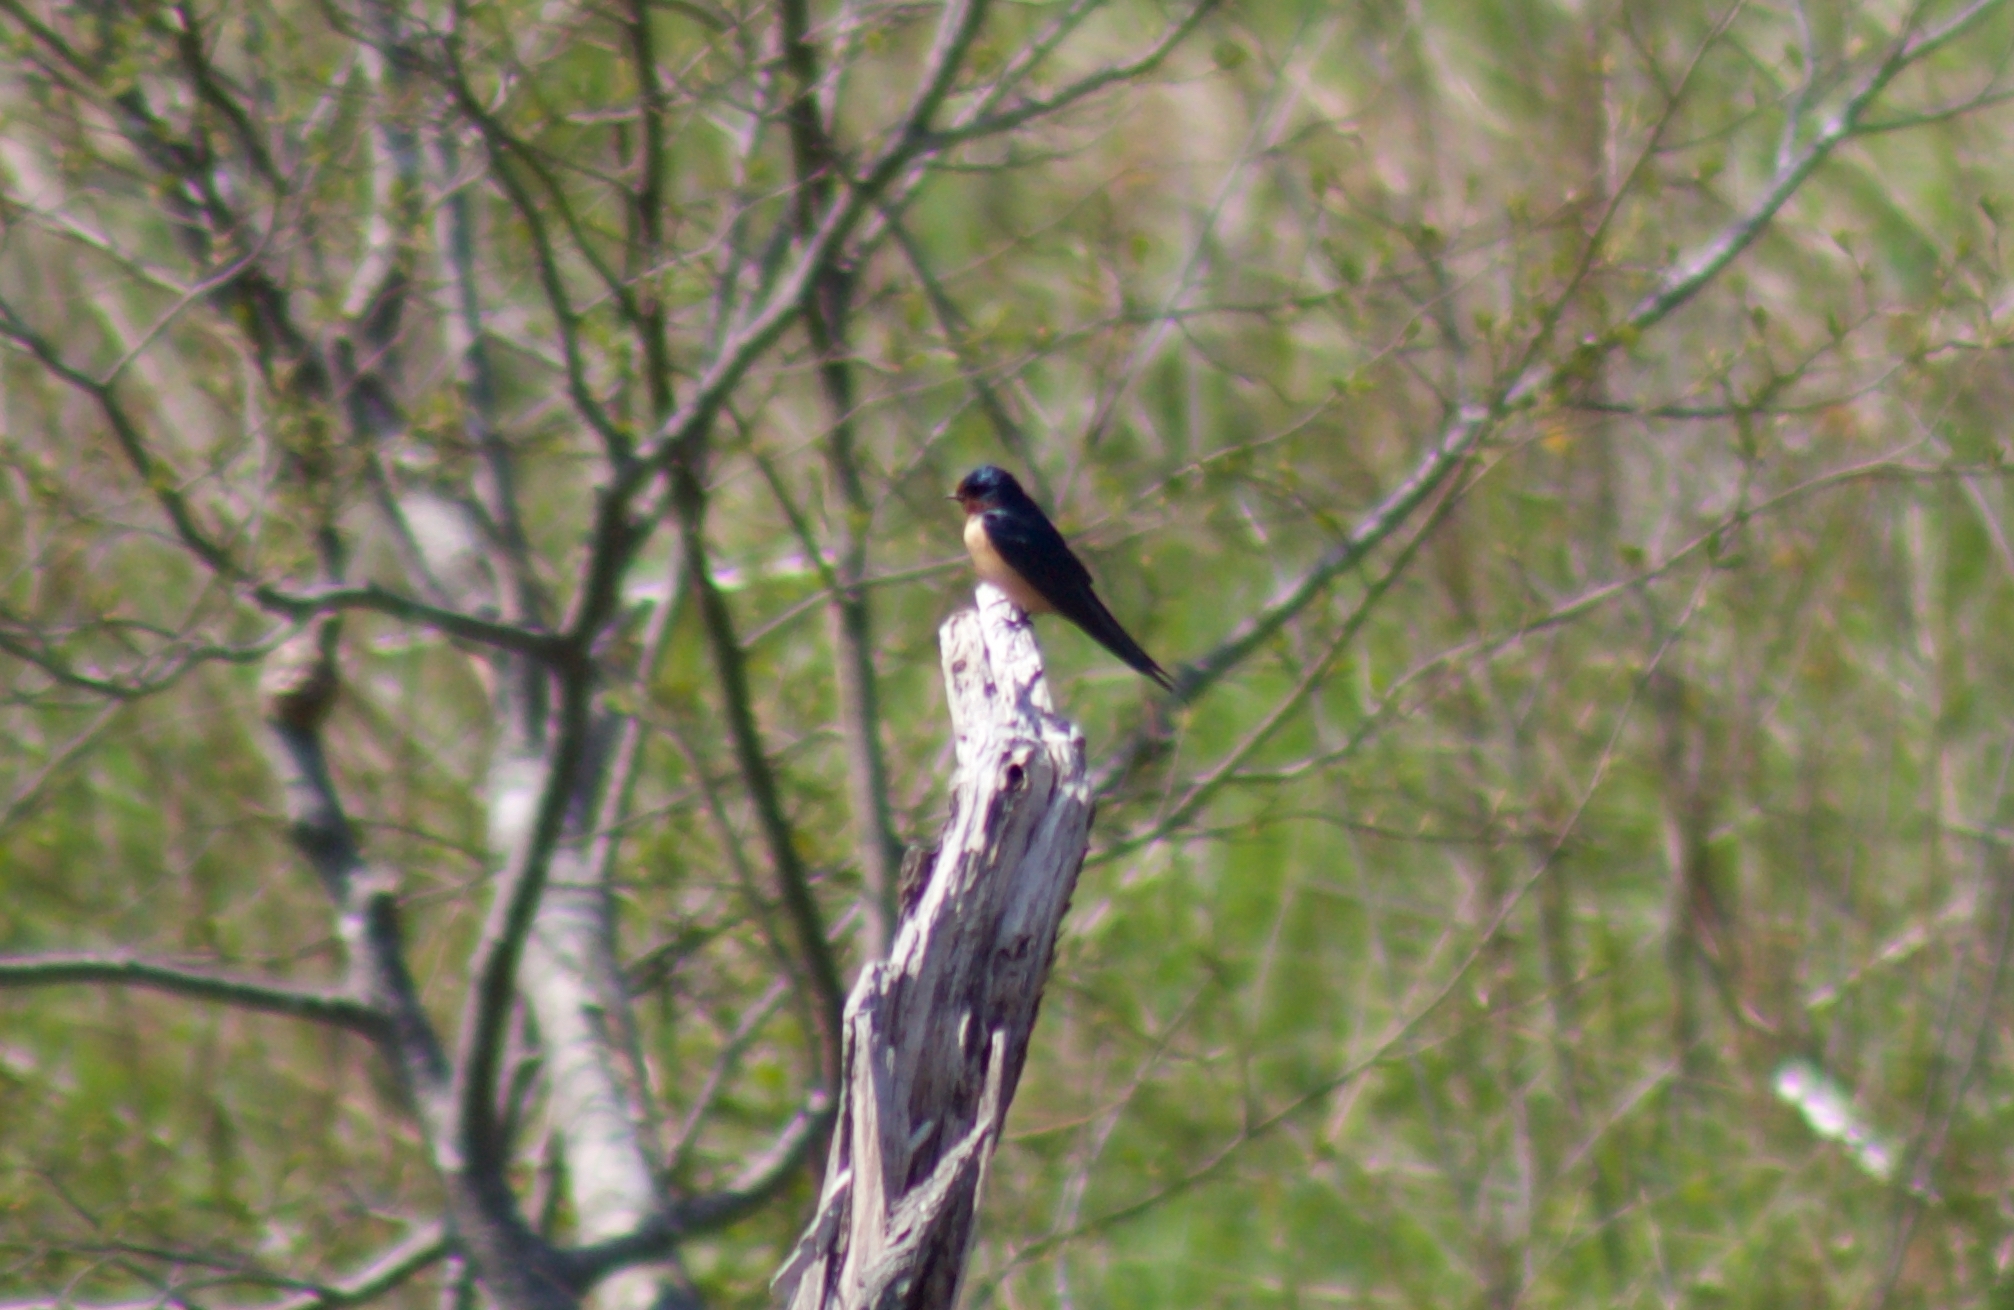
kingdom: Animalia
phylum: Chordata
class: Aves
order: Passeriformes
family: Hirundinidae
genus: Hirundo
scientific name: Hirundo rustica
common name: Barn swallow
